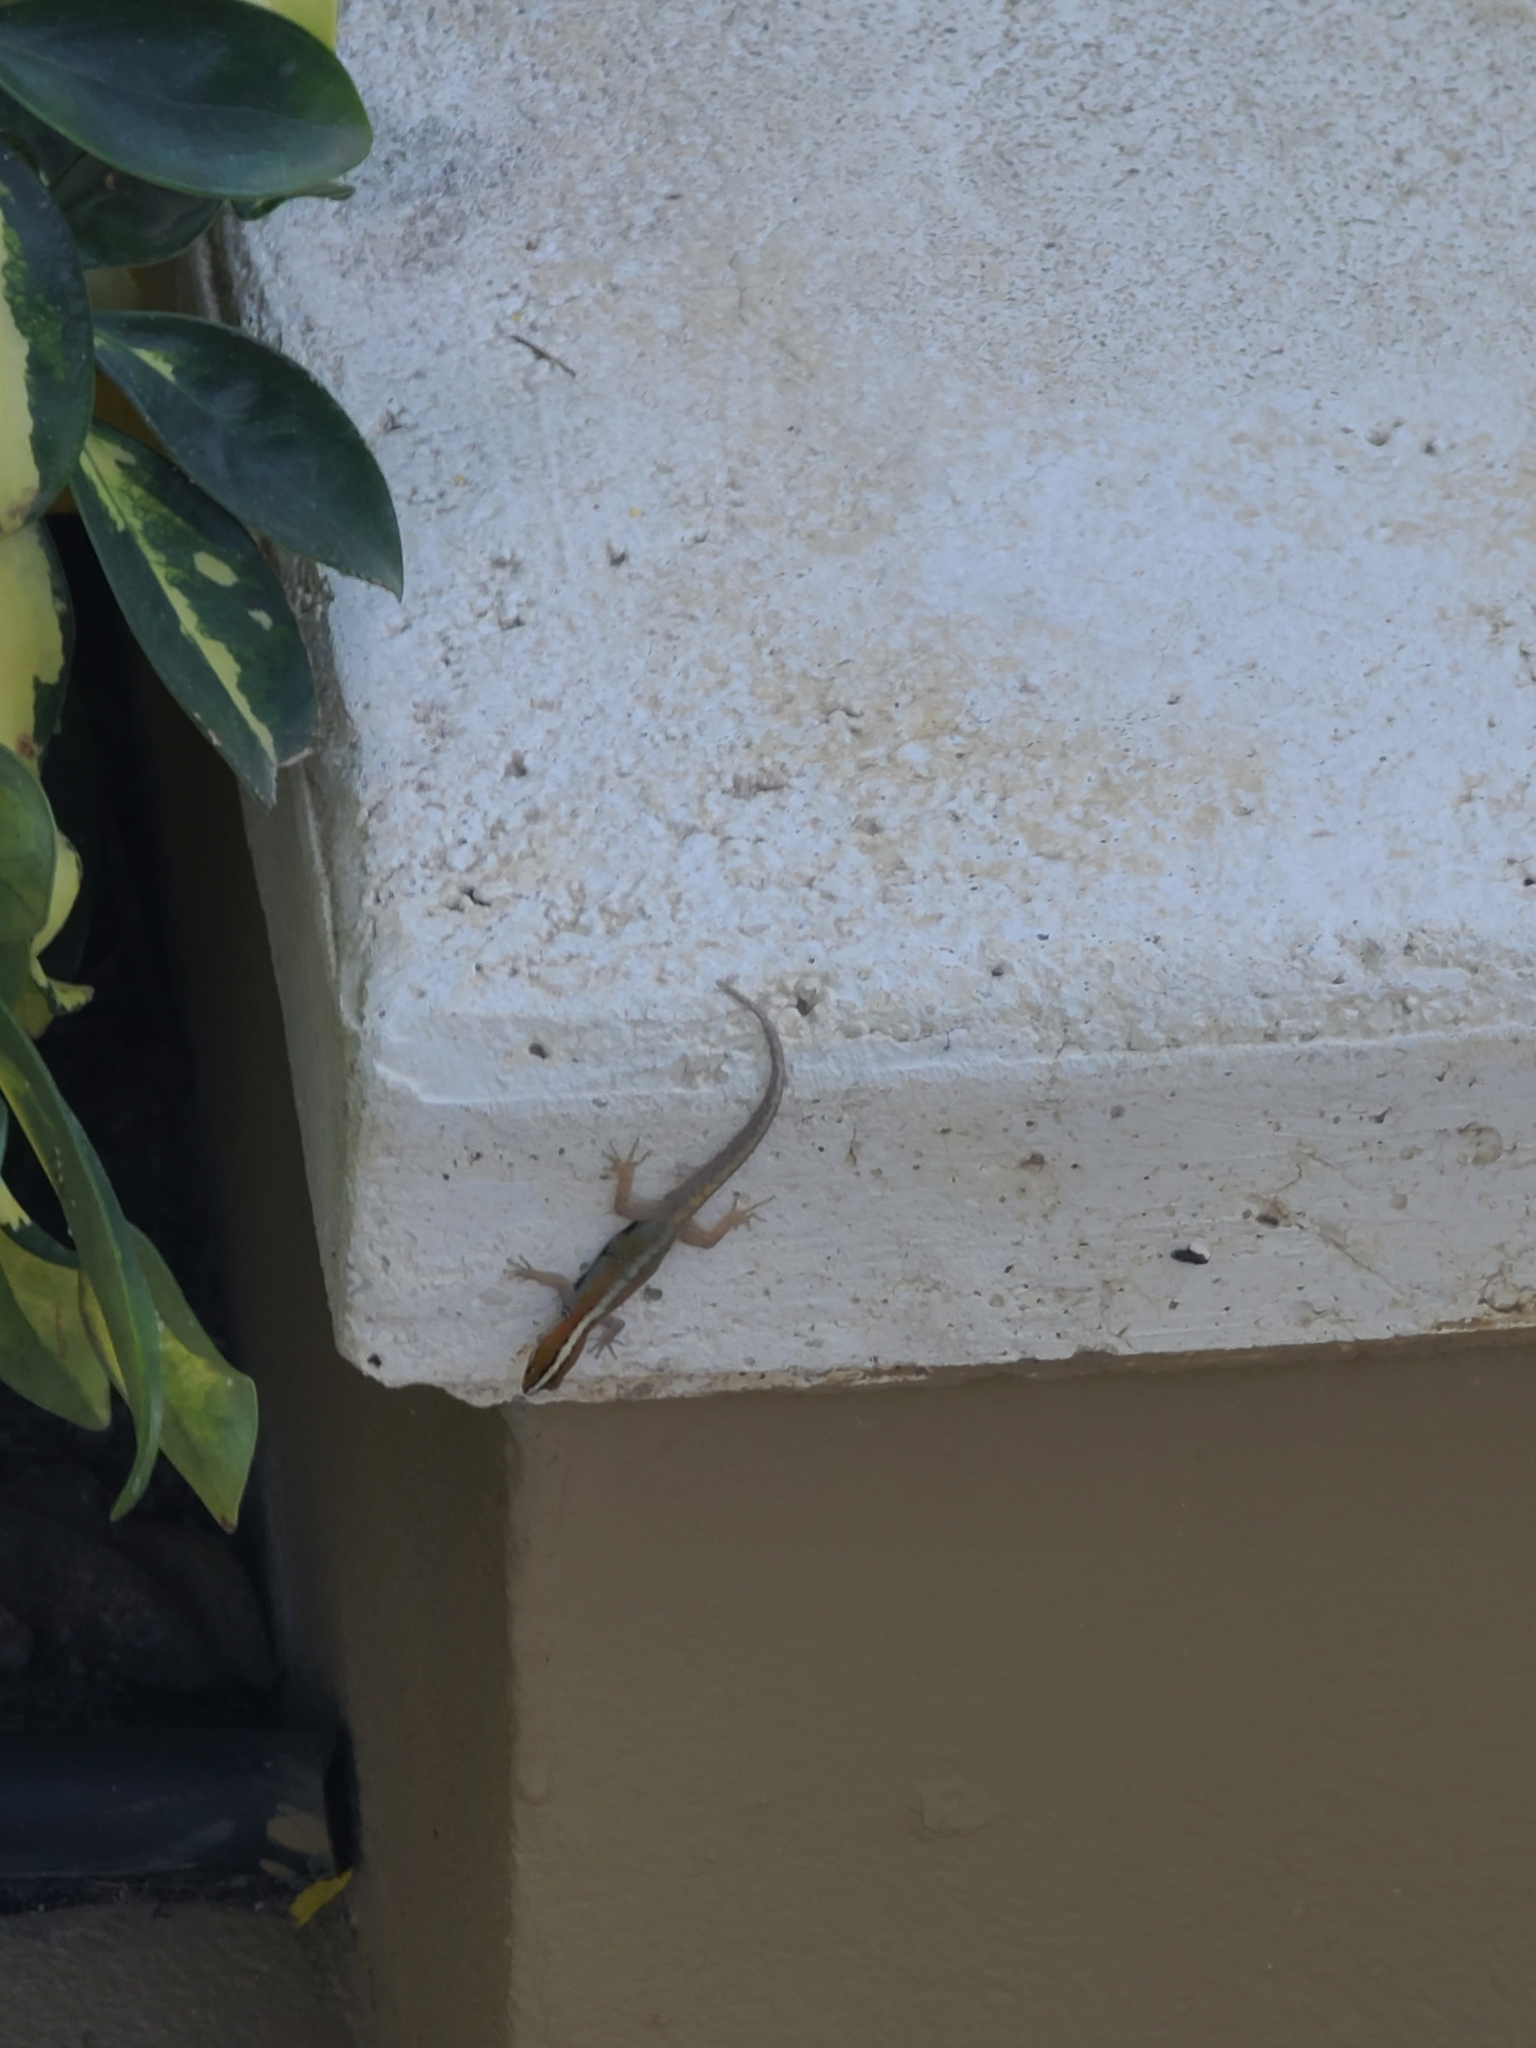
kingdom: Animalia
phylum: Chordata
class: Squamata
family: Sphaerodactylidae
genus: Gonatodes
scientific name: Gonatodes vittatus
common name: Wiegmann's striped gecko
